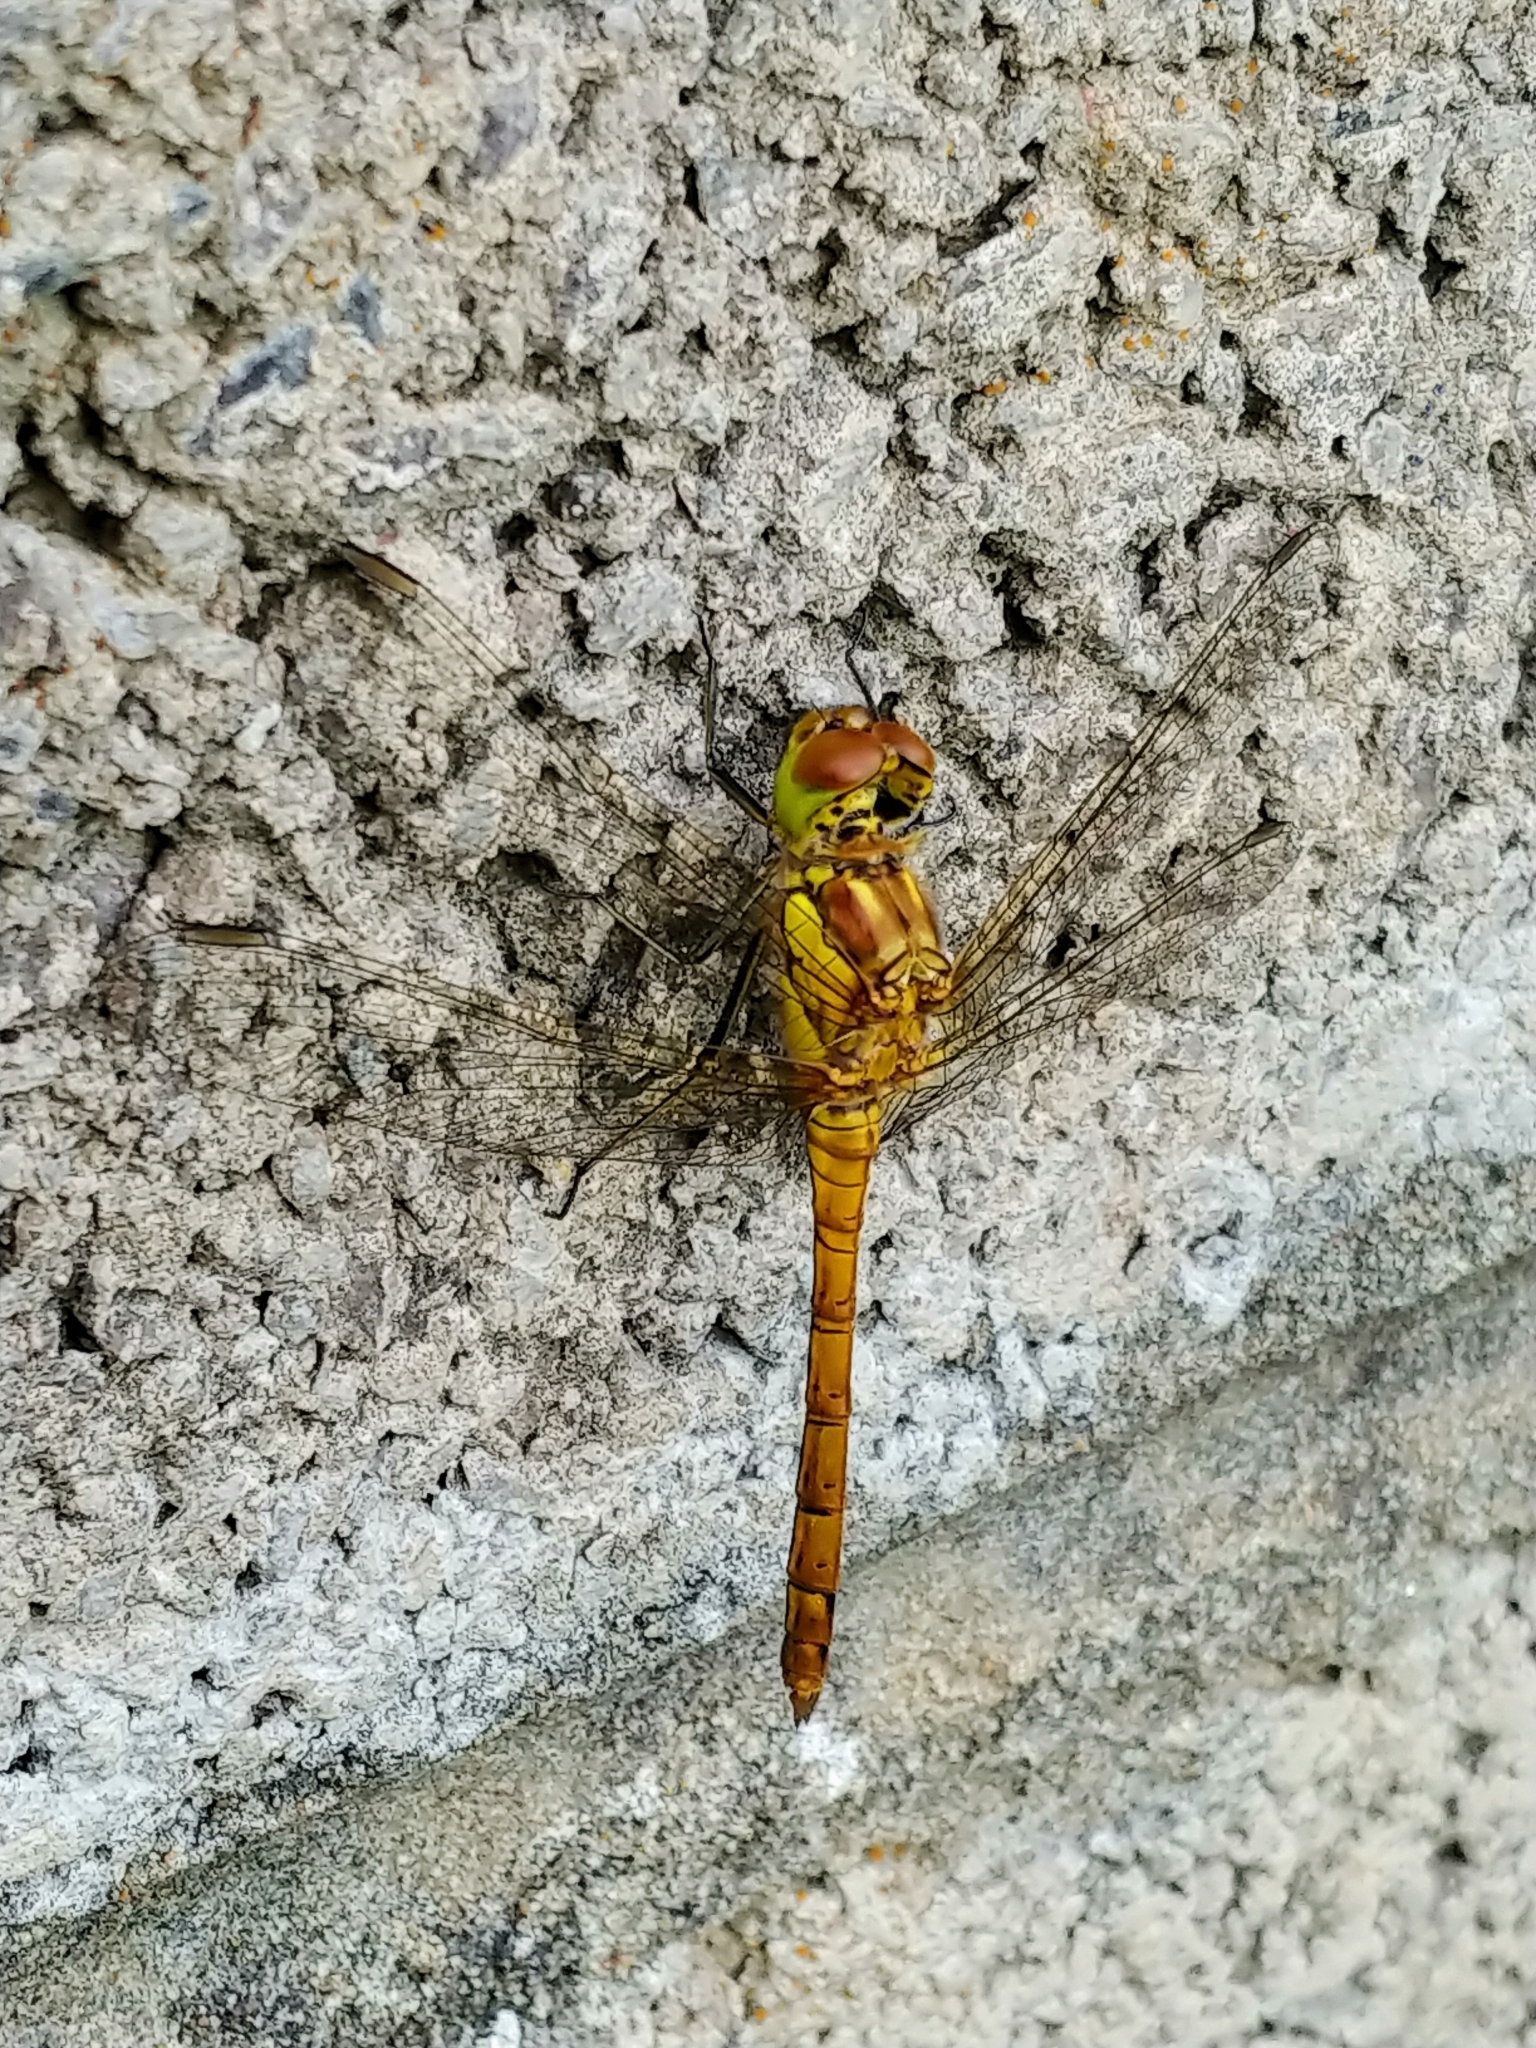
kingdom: Animalia
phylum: Arthropoda
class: Insecta
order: Odonata
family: Libellulidae
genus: Sympetrum
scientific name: Sympetrum striolatum
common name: Common darter
